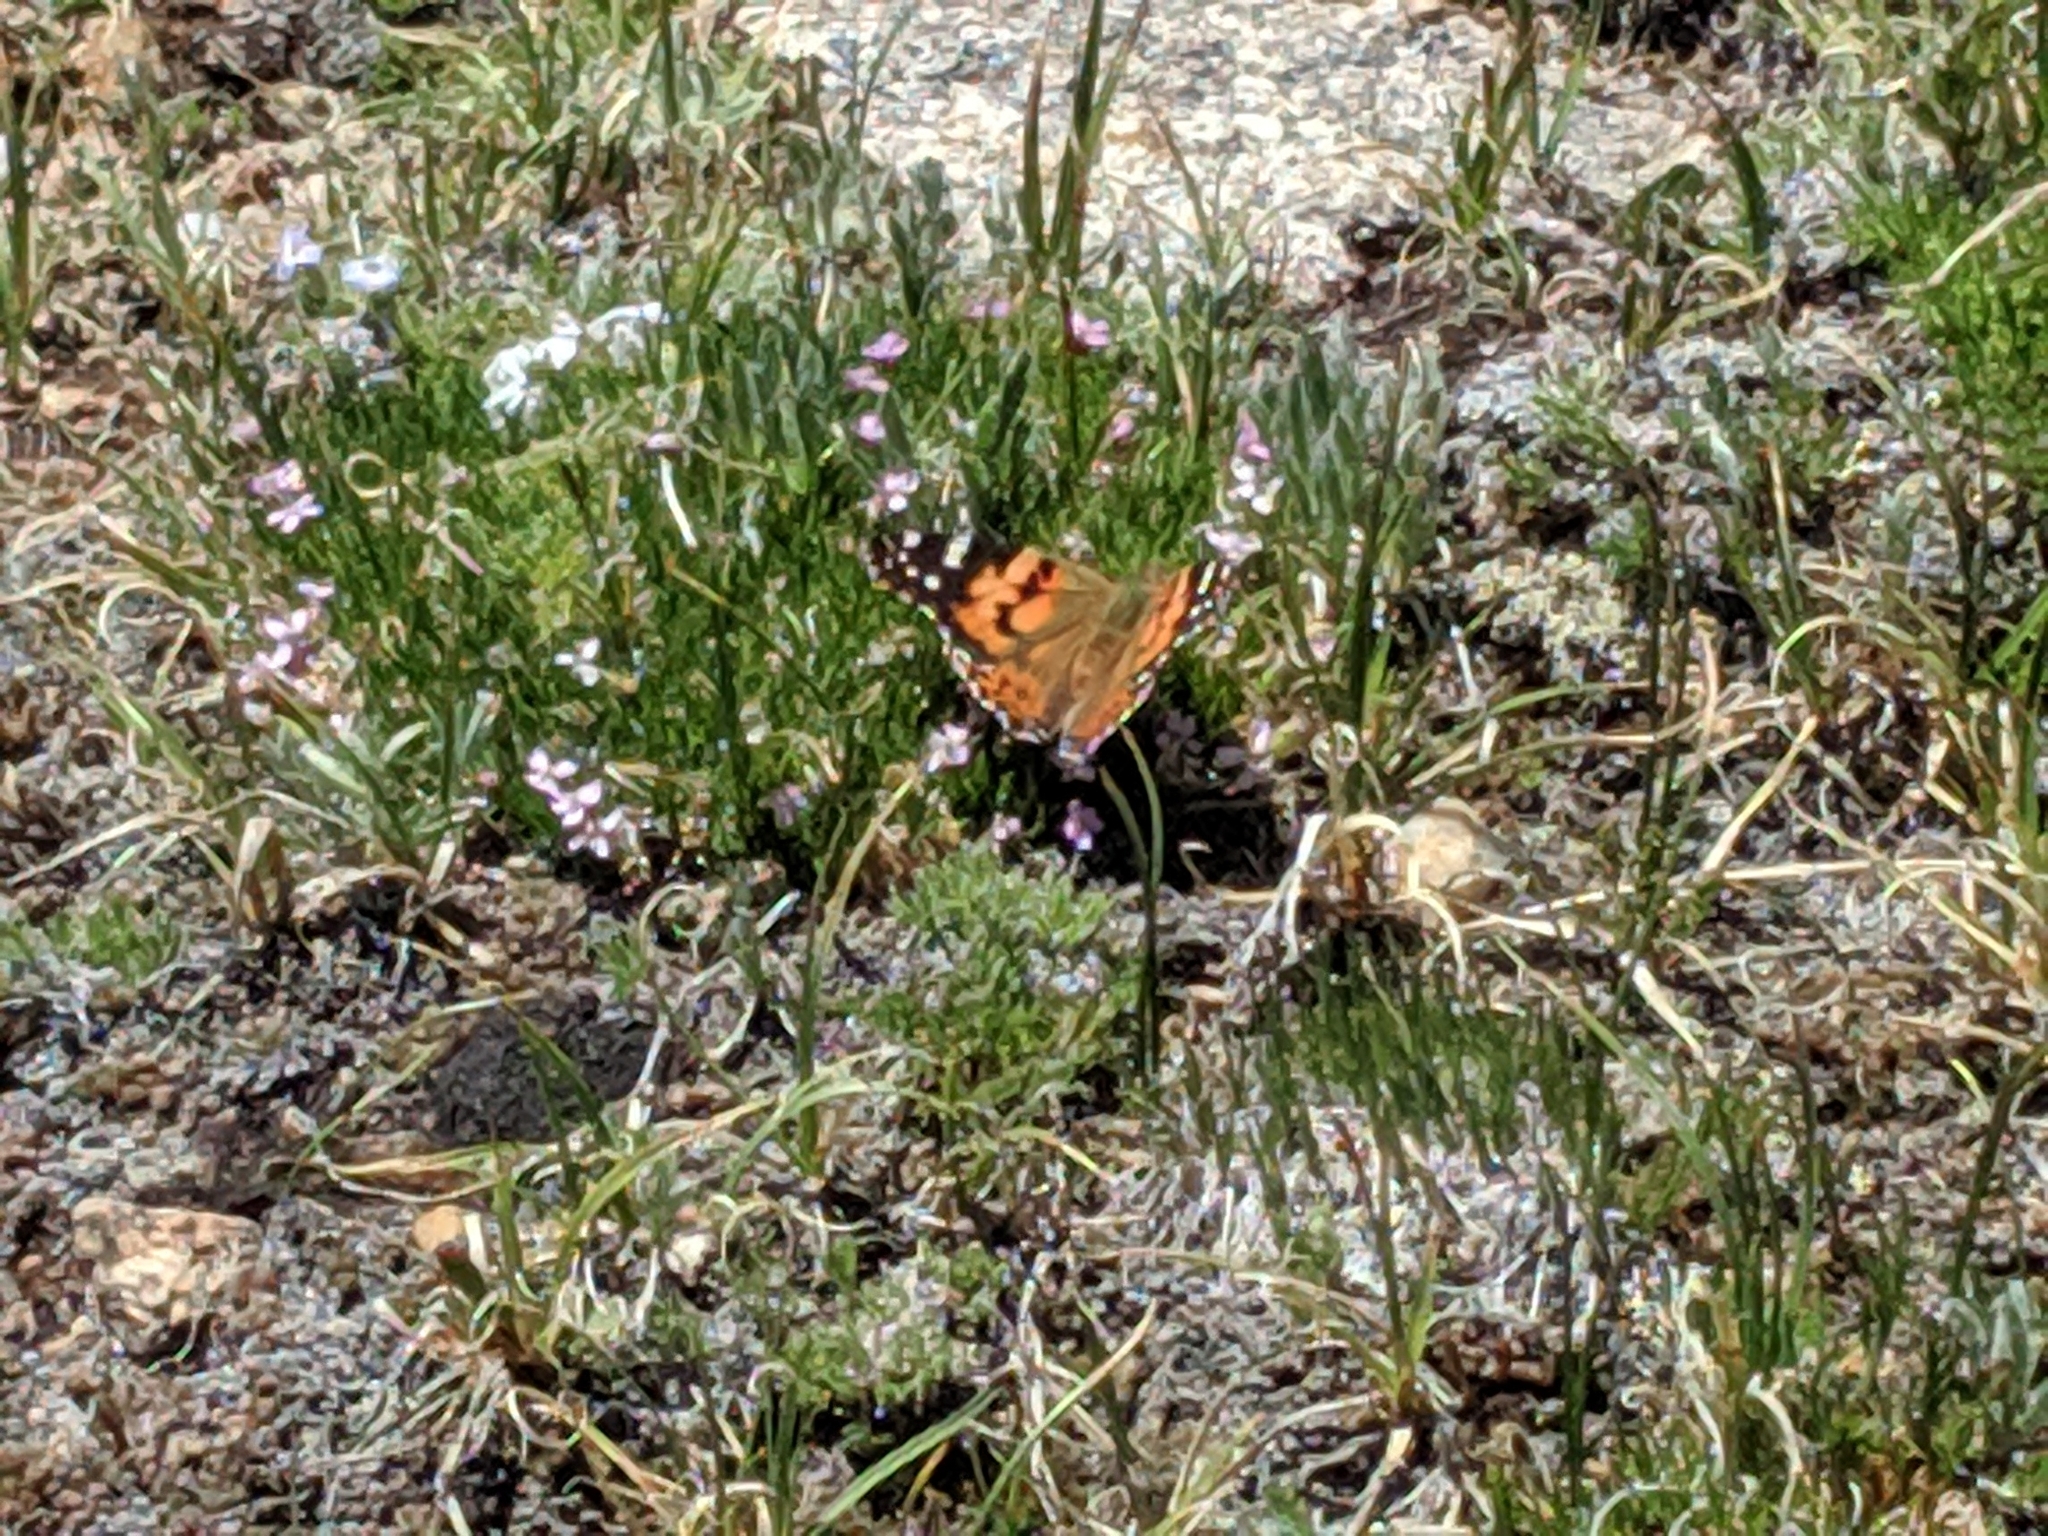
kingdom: Animalia
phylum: Arthropoda
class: Insecta
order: Lepidoptera
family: Nymphalidae
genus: Vanessa
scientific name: Vanessa cardui
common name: Painted lady
